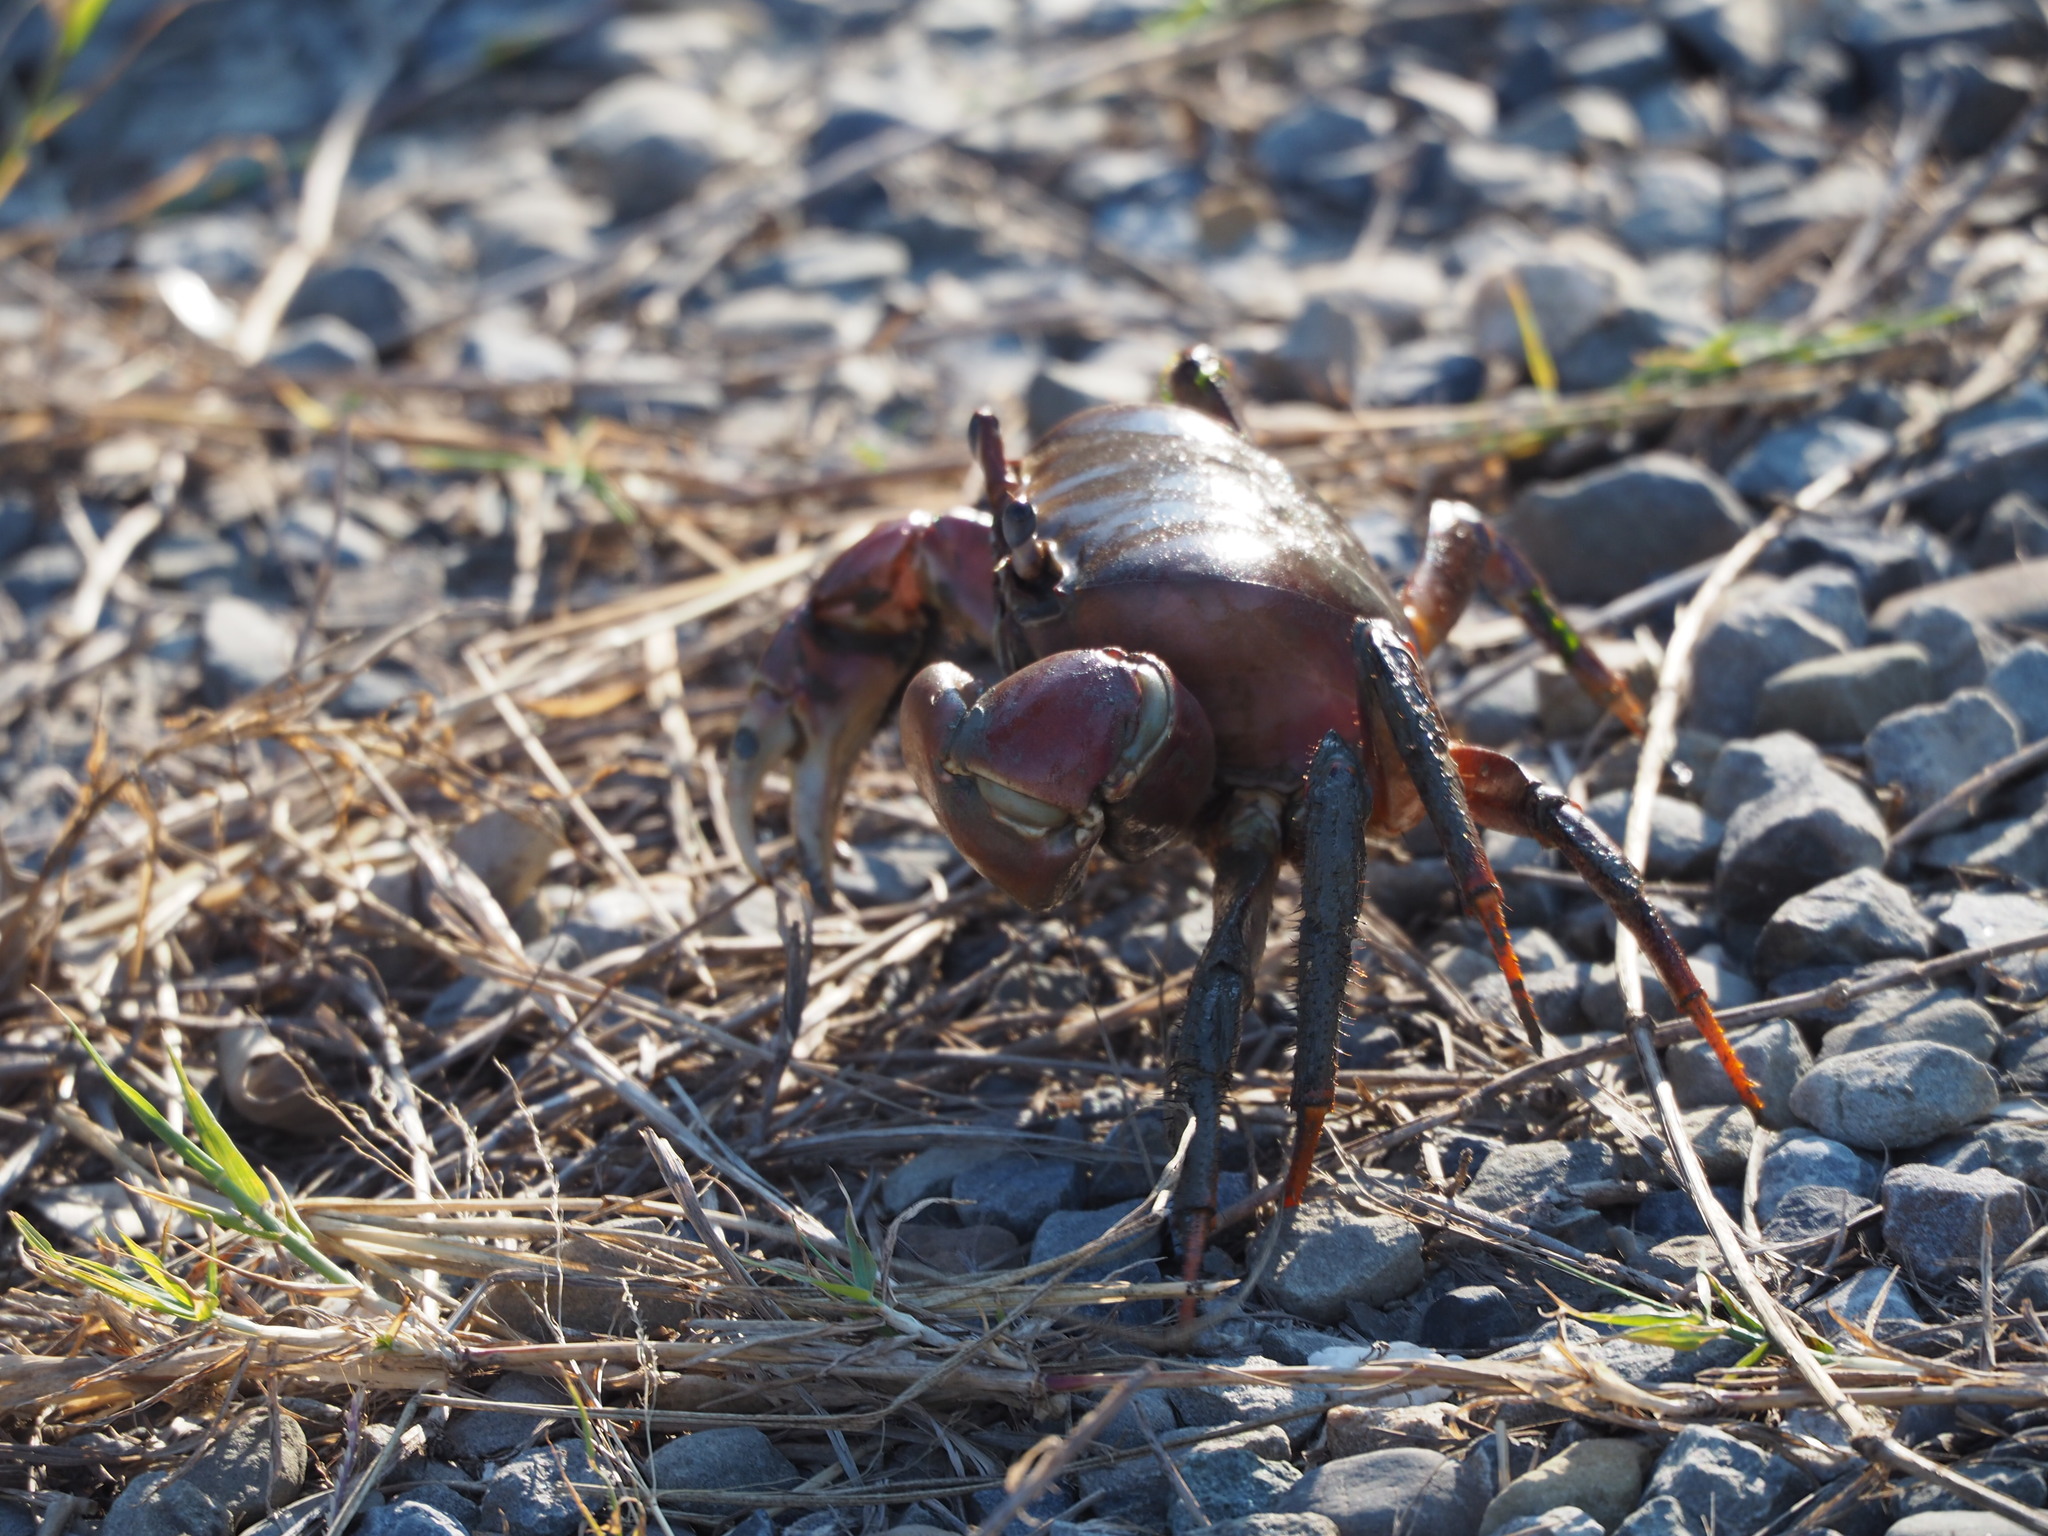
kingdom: Animalia
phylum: Arthropoda
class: Malacostraca
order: Decapoda
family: Gecarcinidae
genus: Cardisoma
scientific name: Cardisoma carnifex
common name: Brown land crab
